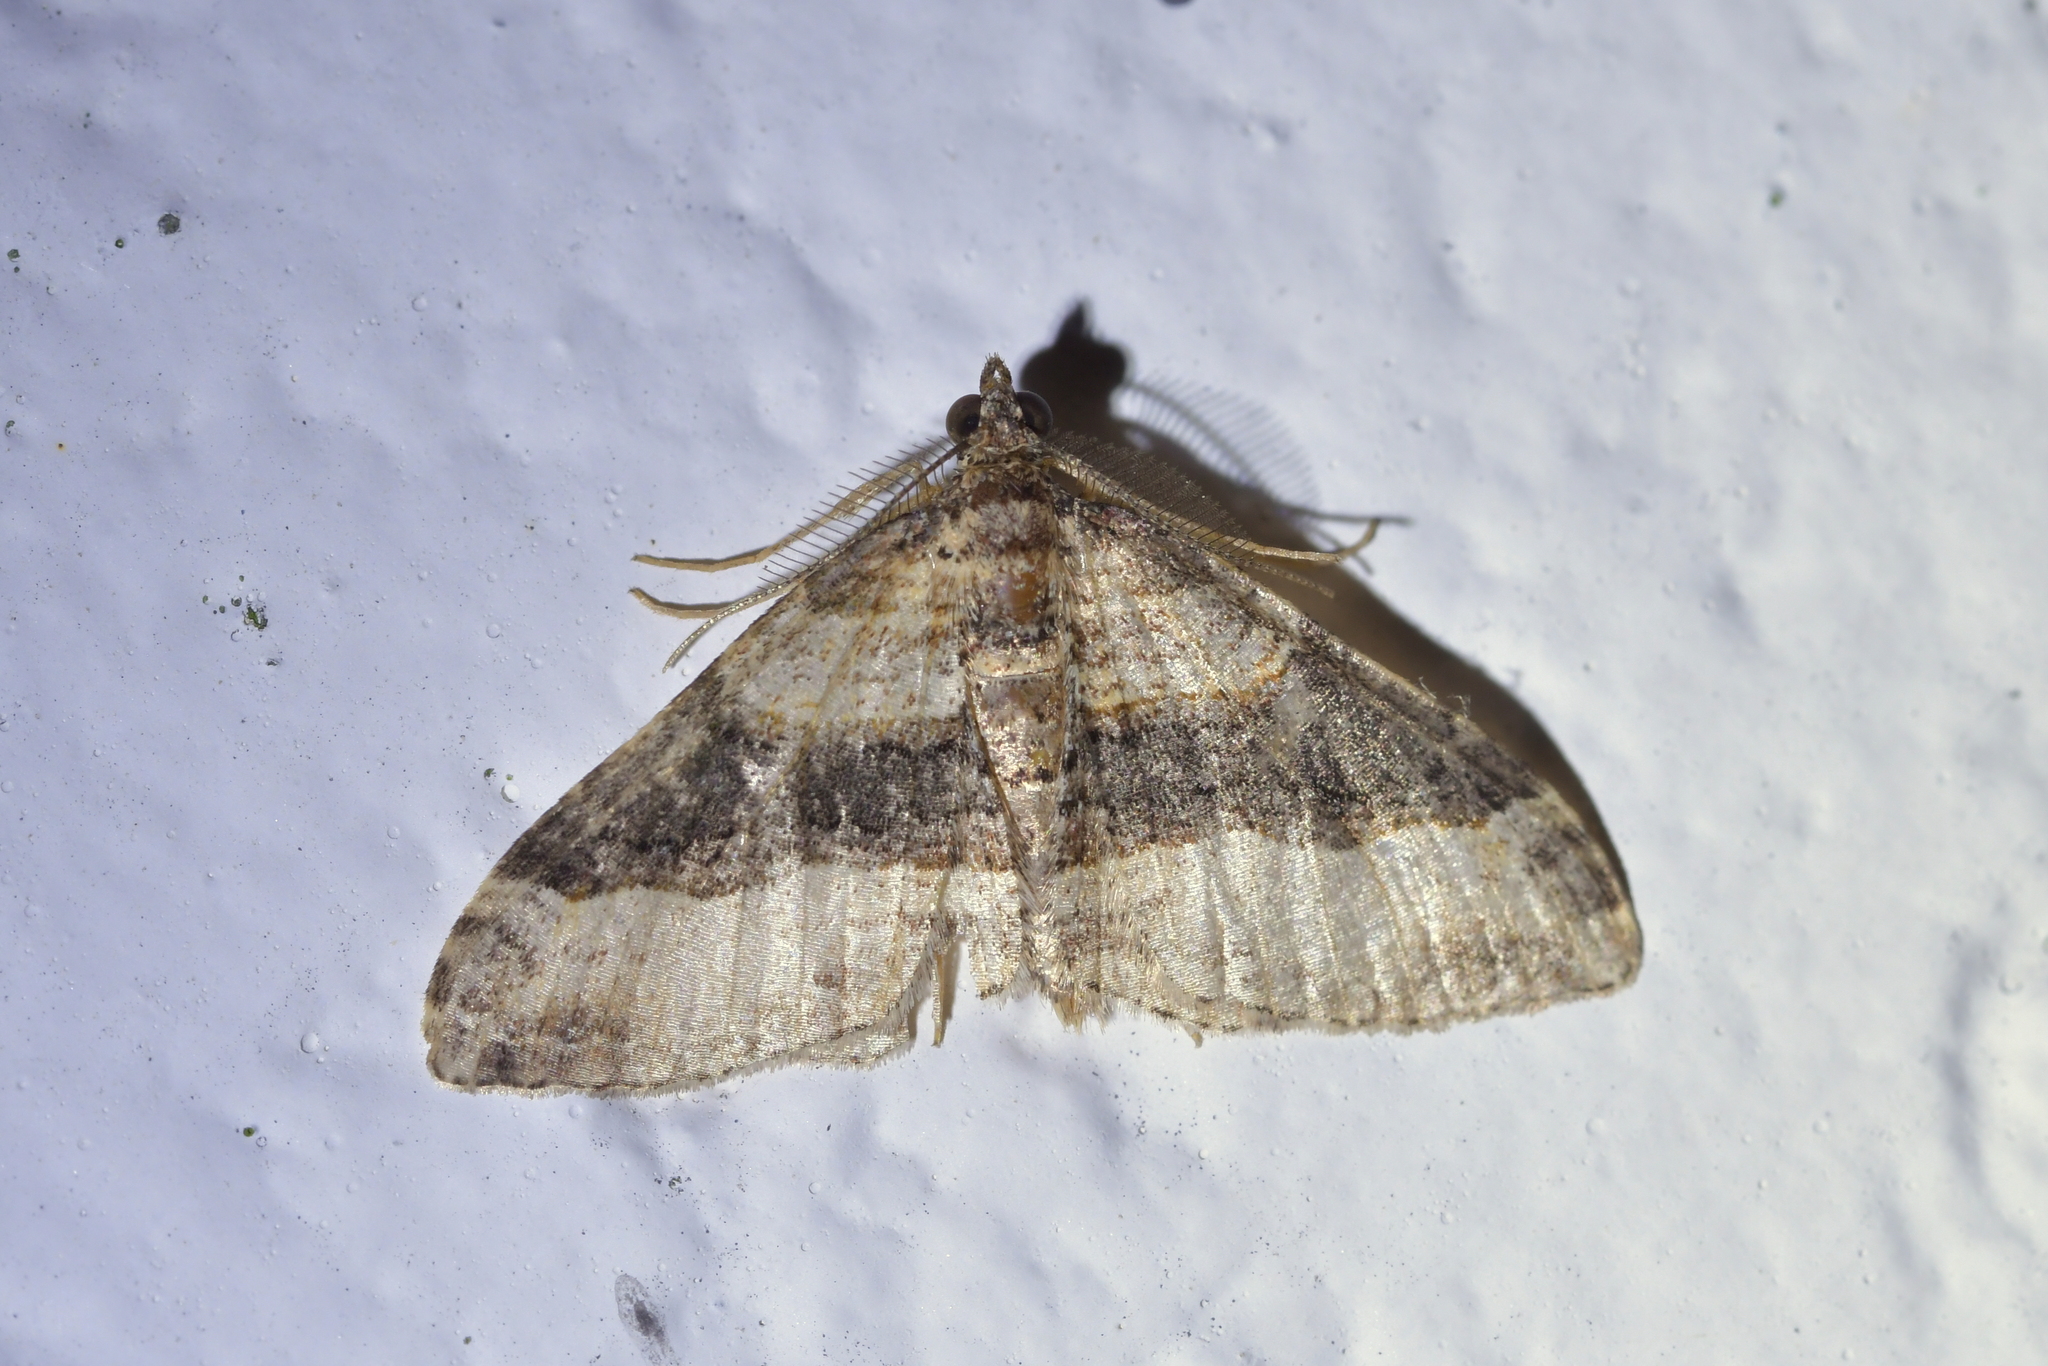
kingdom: Animalia
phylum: Arthropoda
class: Insecta
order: Lepidoptera
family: Geometridae
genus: Epyaxa
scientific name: Epyaxa lucidata
